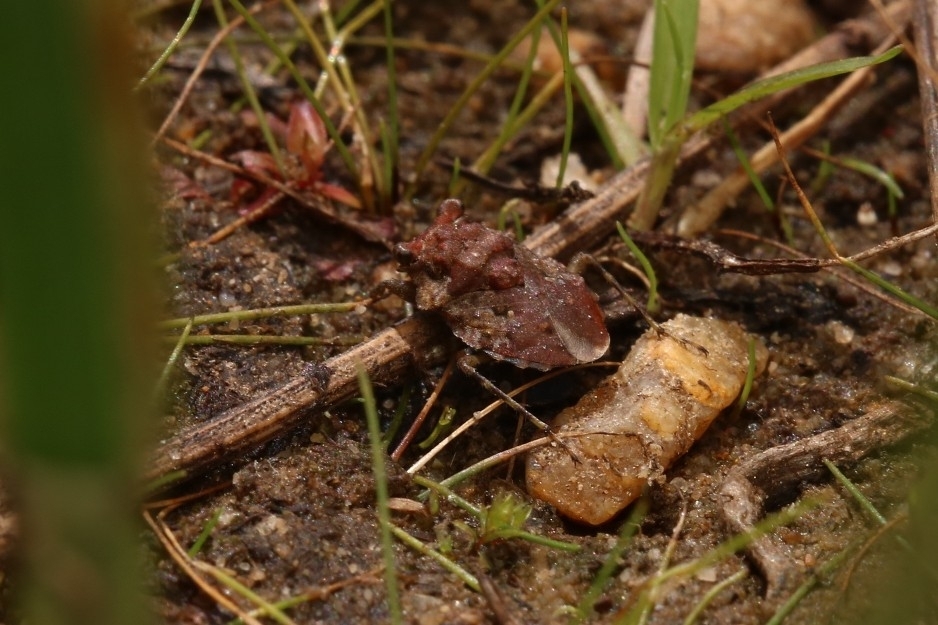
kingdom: Animalia
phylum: Arthropoda
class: Insecta
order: Hemiptera
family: Gelastocoridae
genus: Gelastocoris
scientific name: Gelastocoris oculatus
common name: Toad bug
